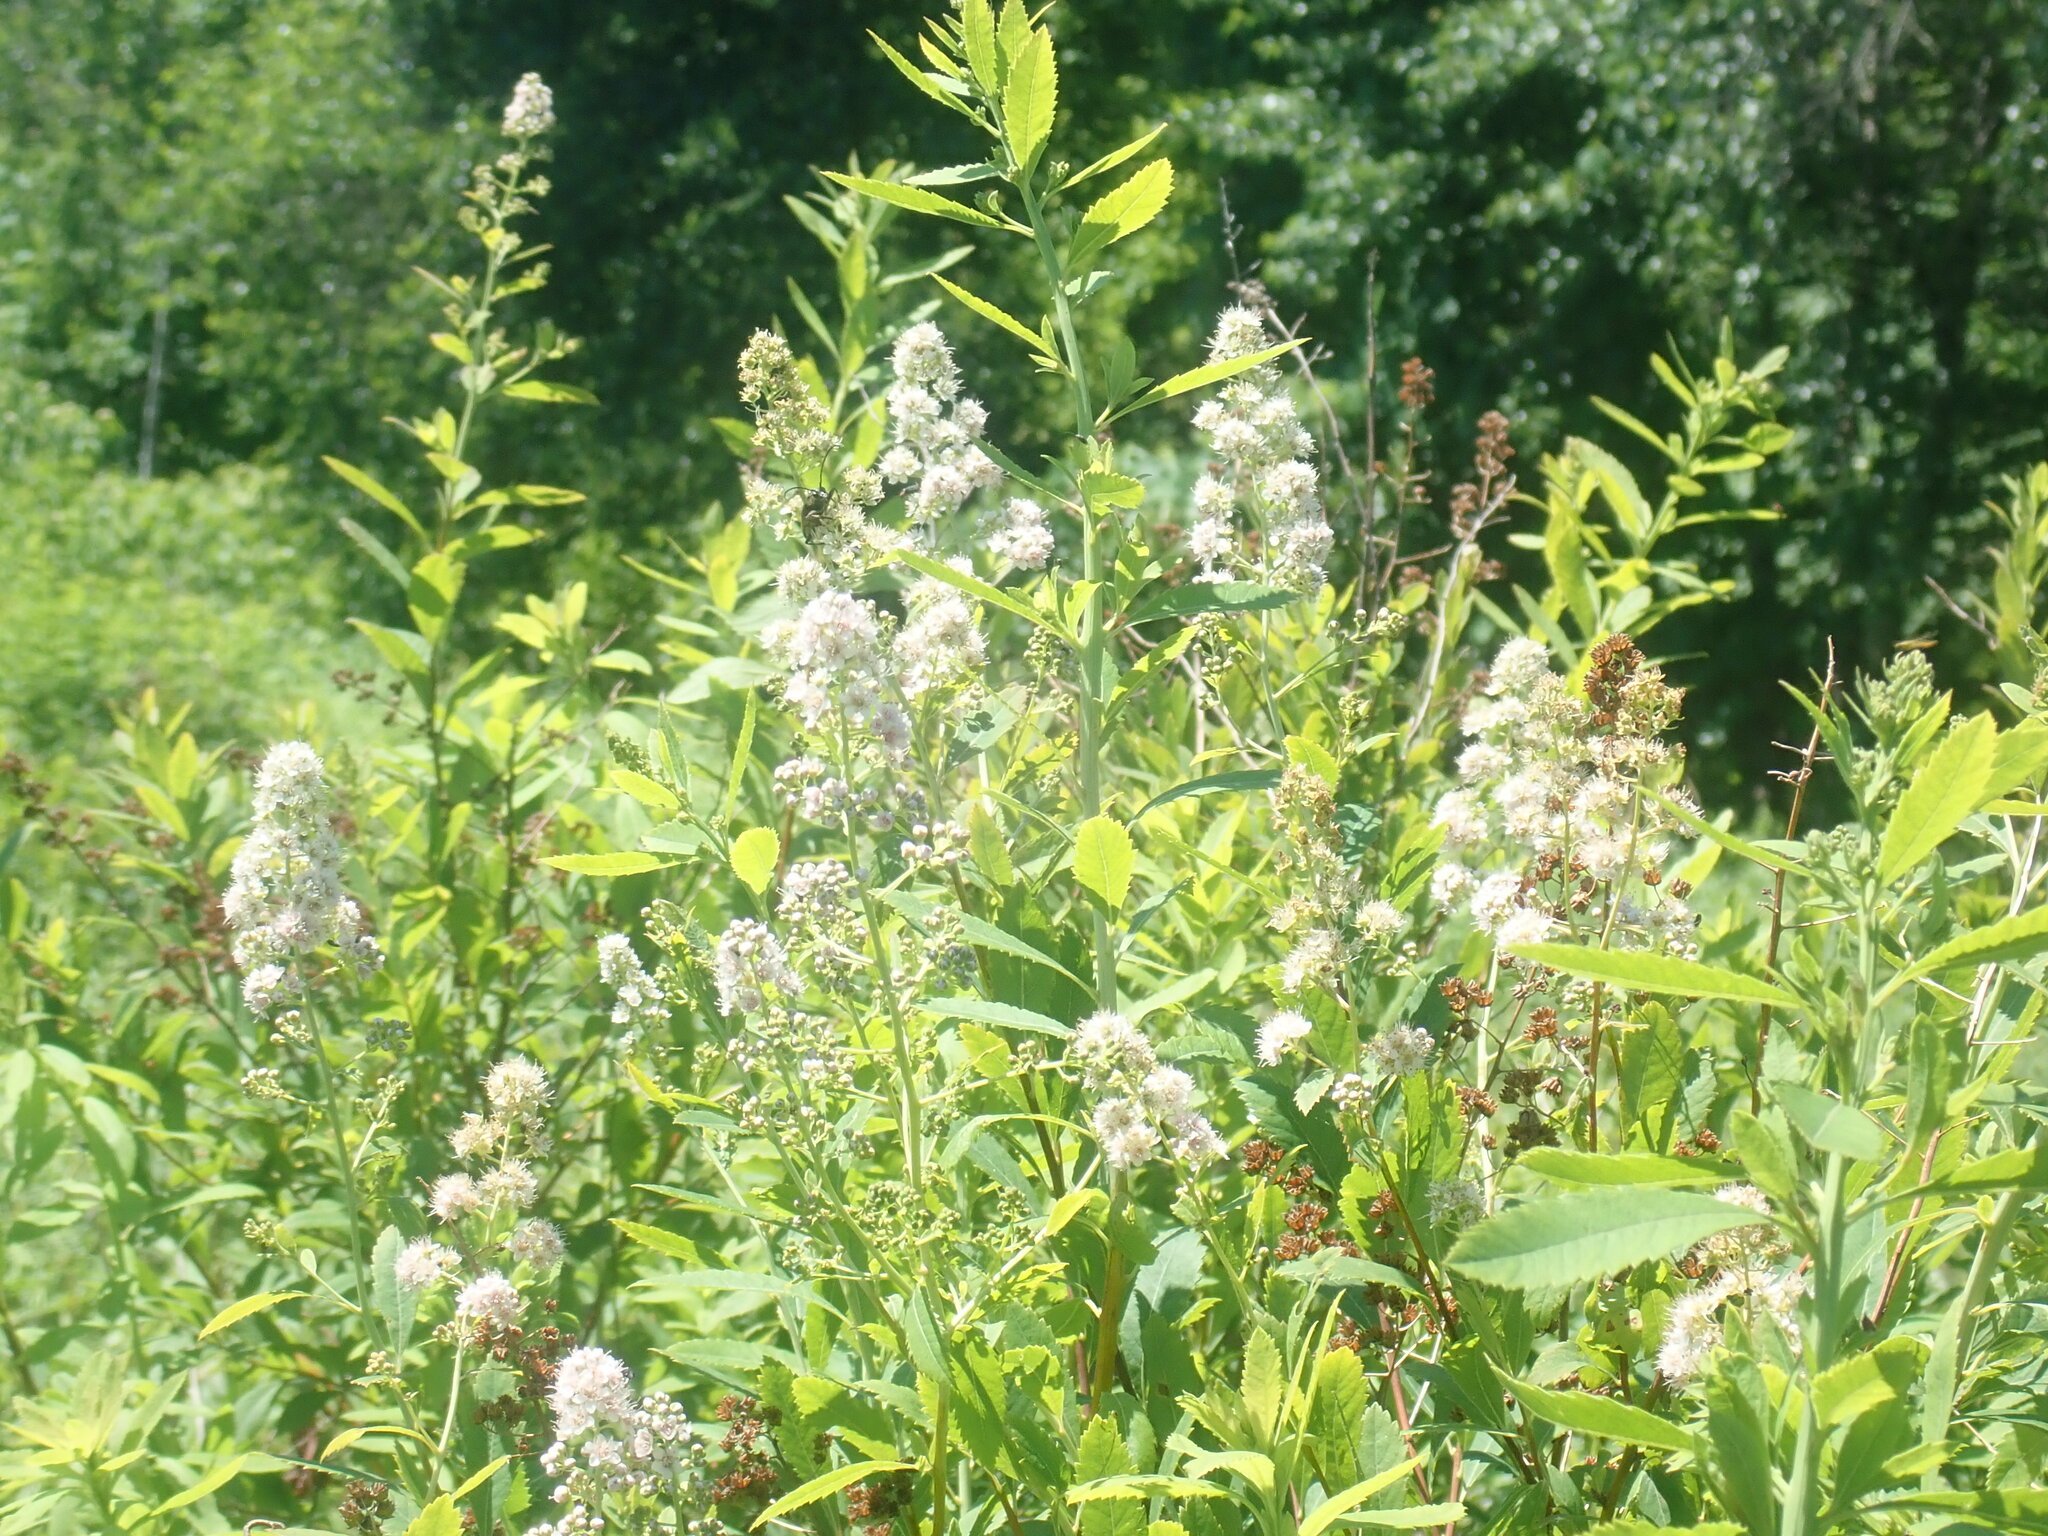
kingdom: Plantae
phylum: Tracheophyta
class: Magnoliopsida
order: Rosales
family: Rosaceae
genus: Spiraea
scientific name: Spiraea alba
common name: Pale bridewort
